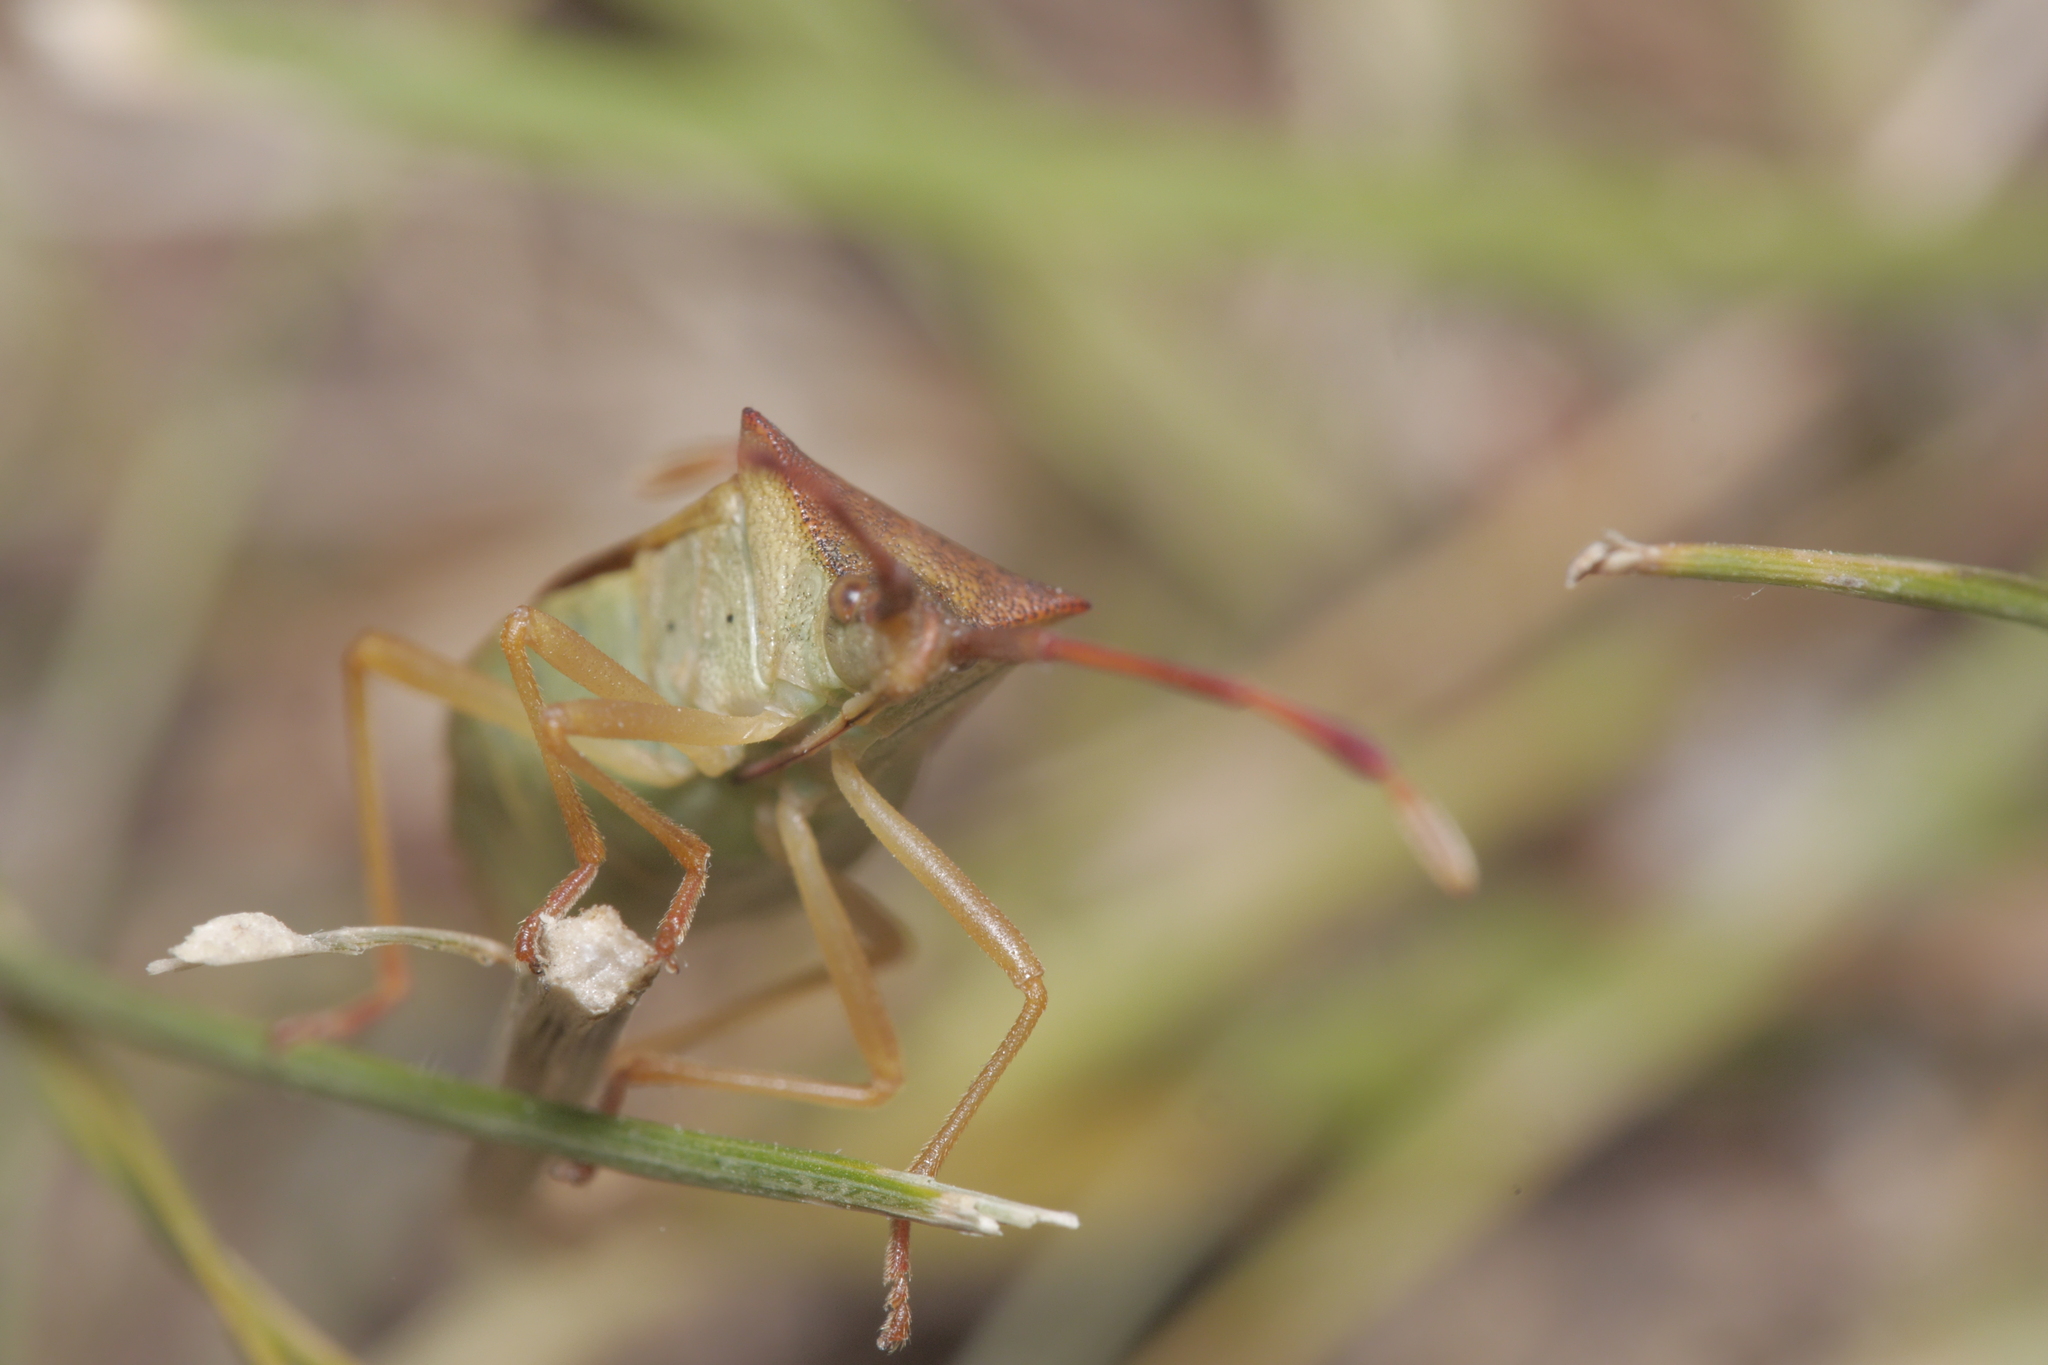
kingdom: Animalia
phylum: Arthropoda
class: Insecta
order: Hemiptera
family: Coreidae
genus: Gonocerus
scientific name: Gonocerus acuteangulatus
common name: Box bug
